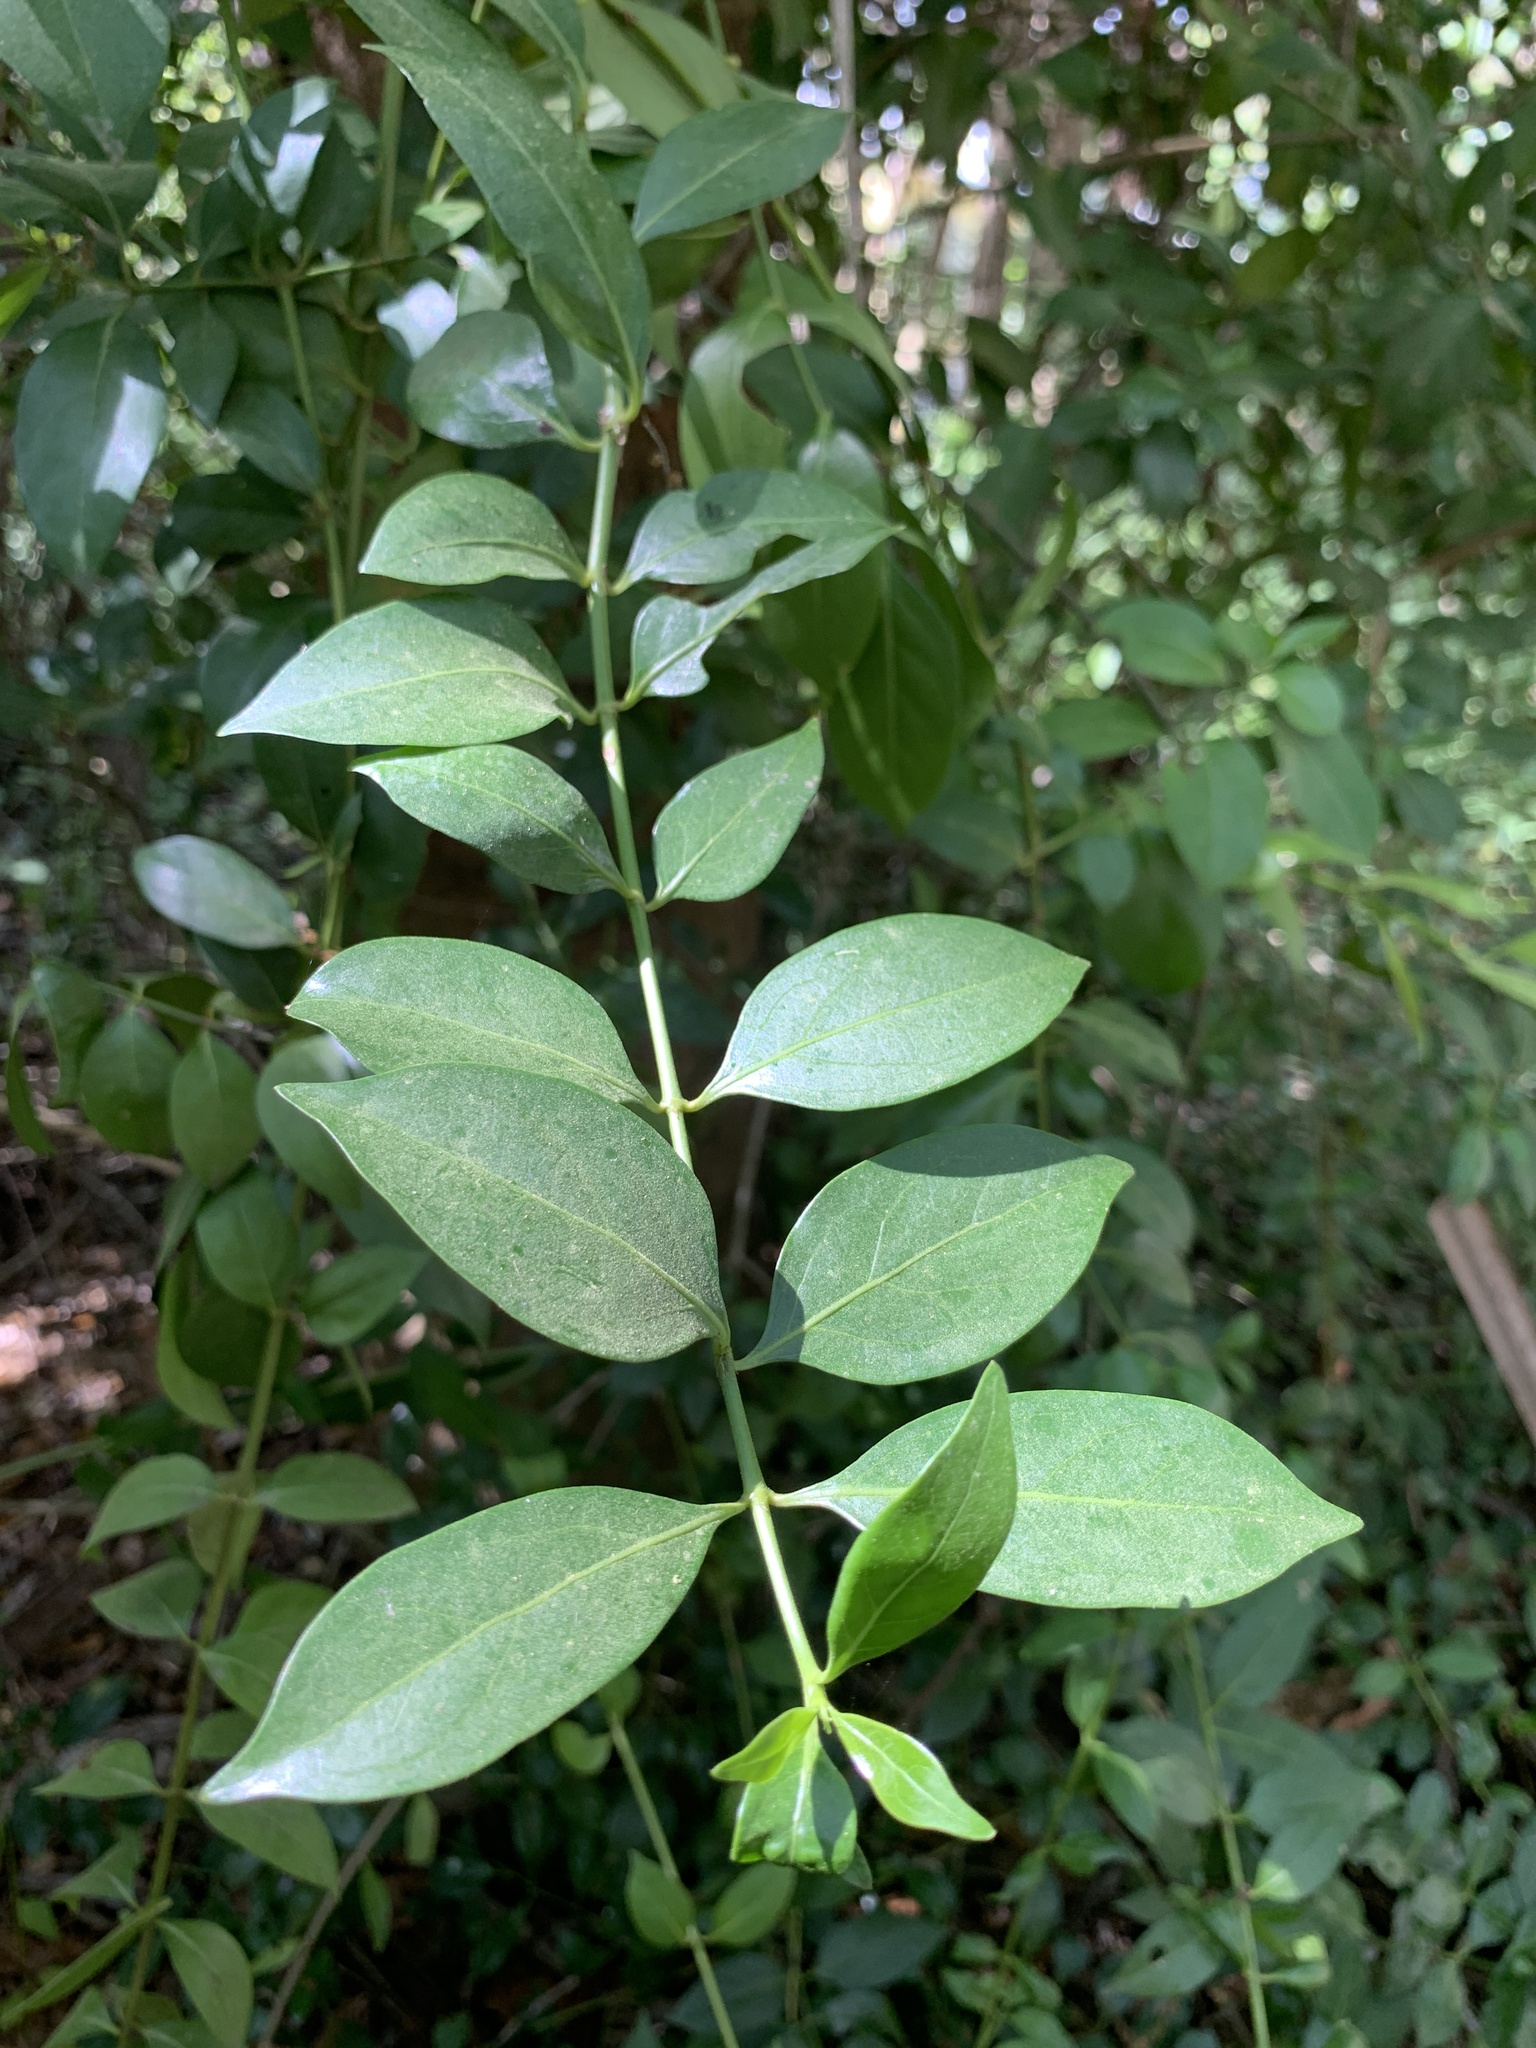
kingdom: Plantae
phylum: Tracheophyta
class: Magnoliopsida
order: Gentianales
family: Rubiaceae
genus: Chiococca
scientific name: Chiococca alba
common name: Snowberry
